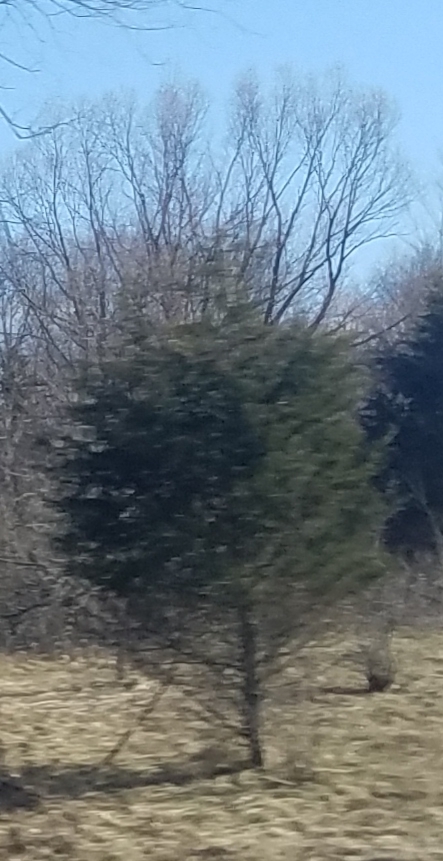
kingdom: Plantae
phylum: Tracheophyta
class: Pinopsida
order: Pinales
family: Cupressaceae
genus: Juniperus
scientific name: Juniperus virginiana
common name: Red juniper
